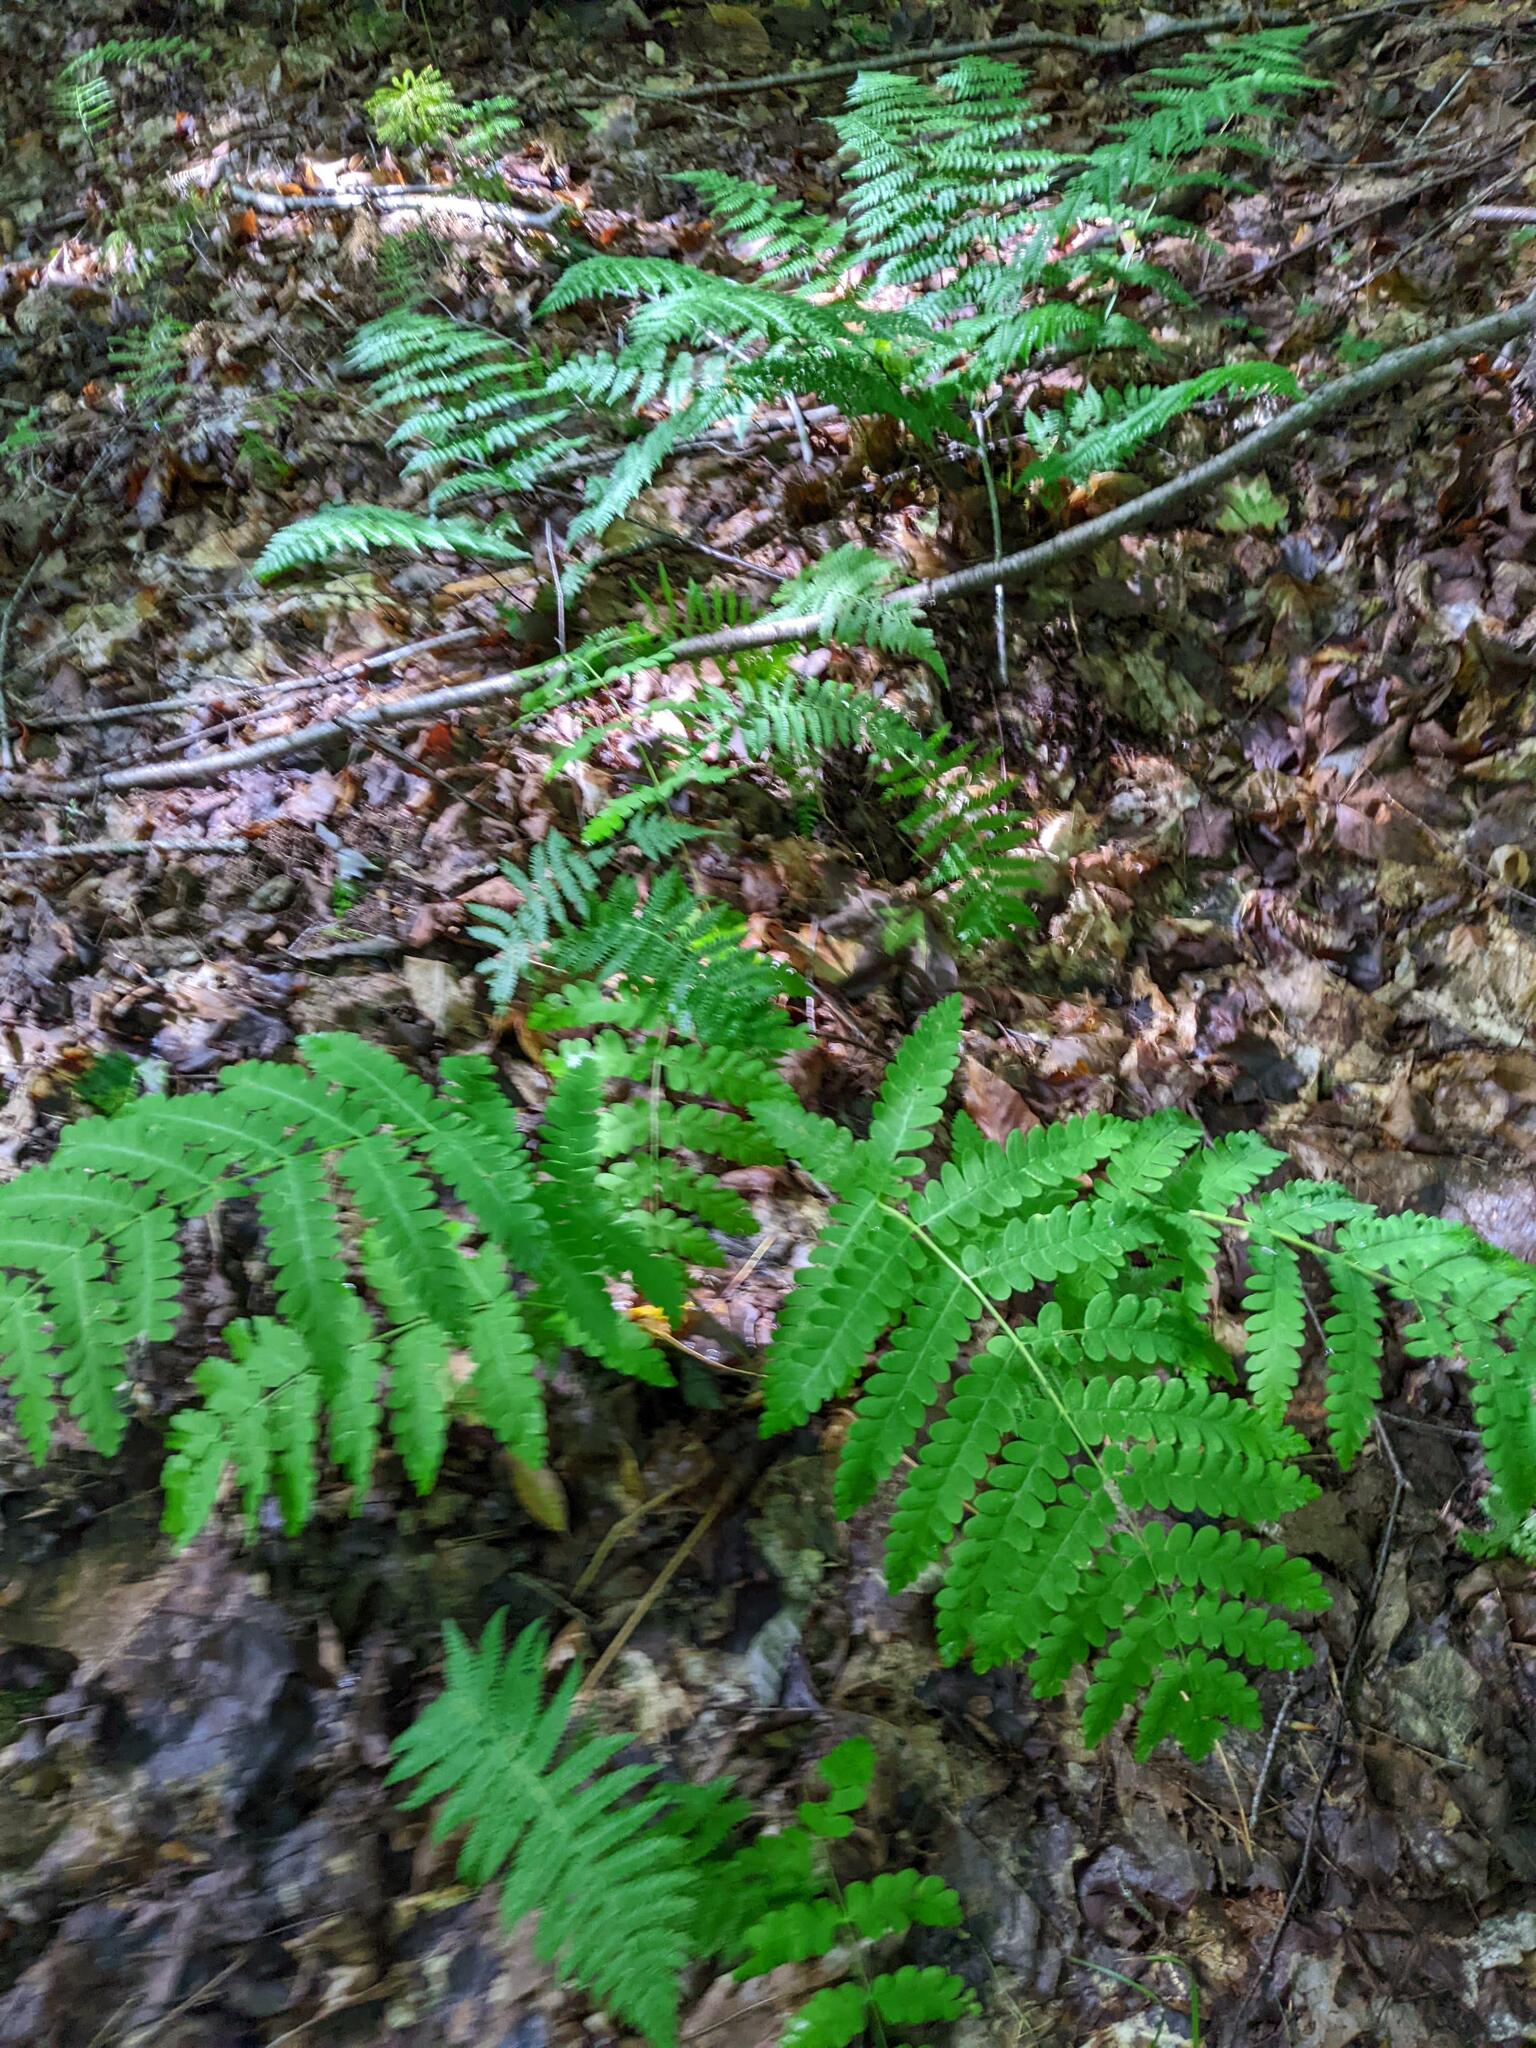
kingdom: Plantae
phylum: Tracheophyta
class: Polypodiopsida
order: Osmundales
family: Osmundaceae
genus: Claytosmunda
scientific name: Claytosmunda claytoniana
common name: Clayton's fern
